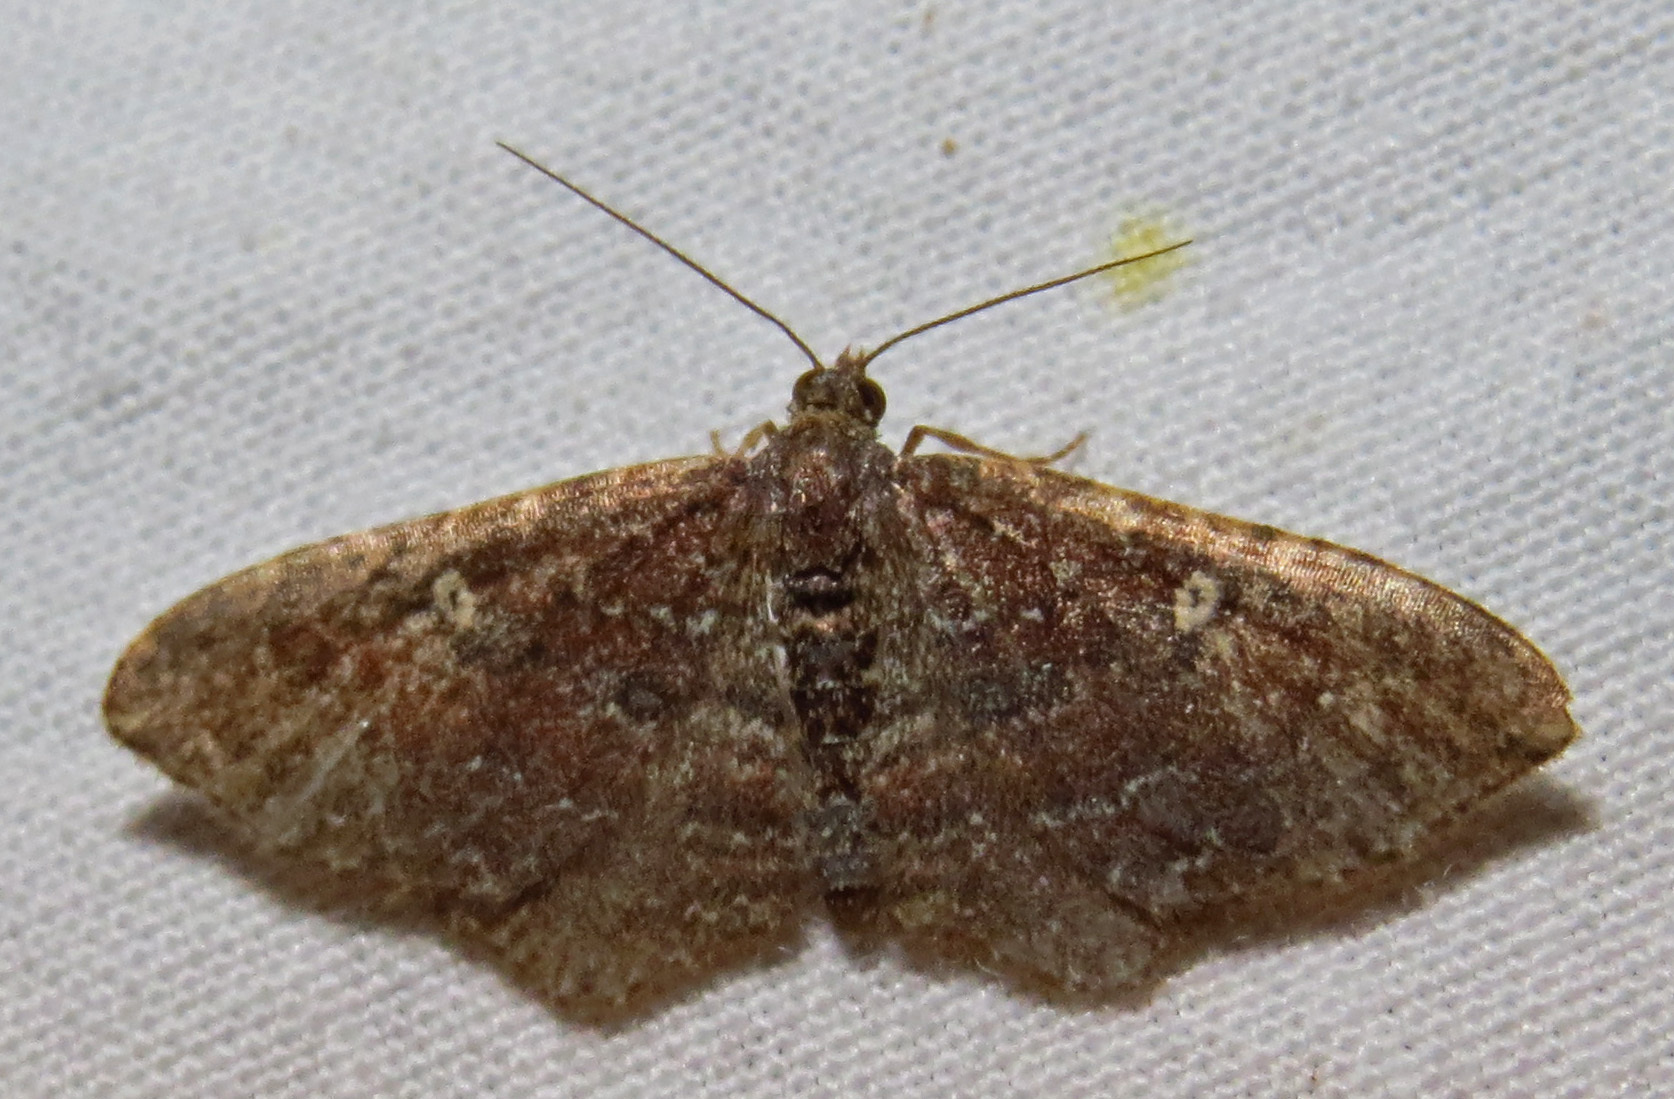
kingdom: Animalia
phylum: Arthropoda
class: Insecta
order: Lepidoptera
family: Geometridae
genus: Orthonama
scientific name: Orthonama obstipata
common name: The gem
